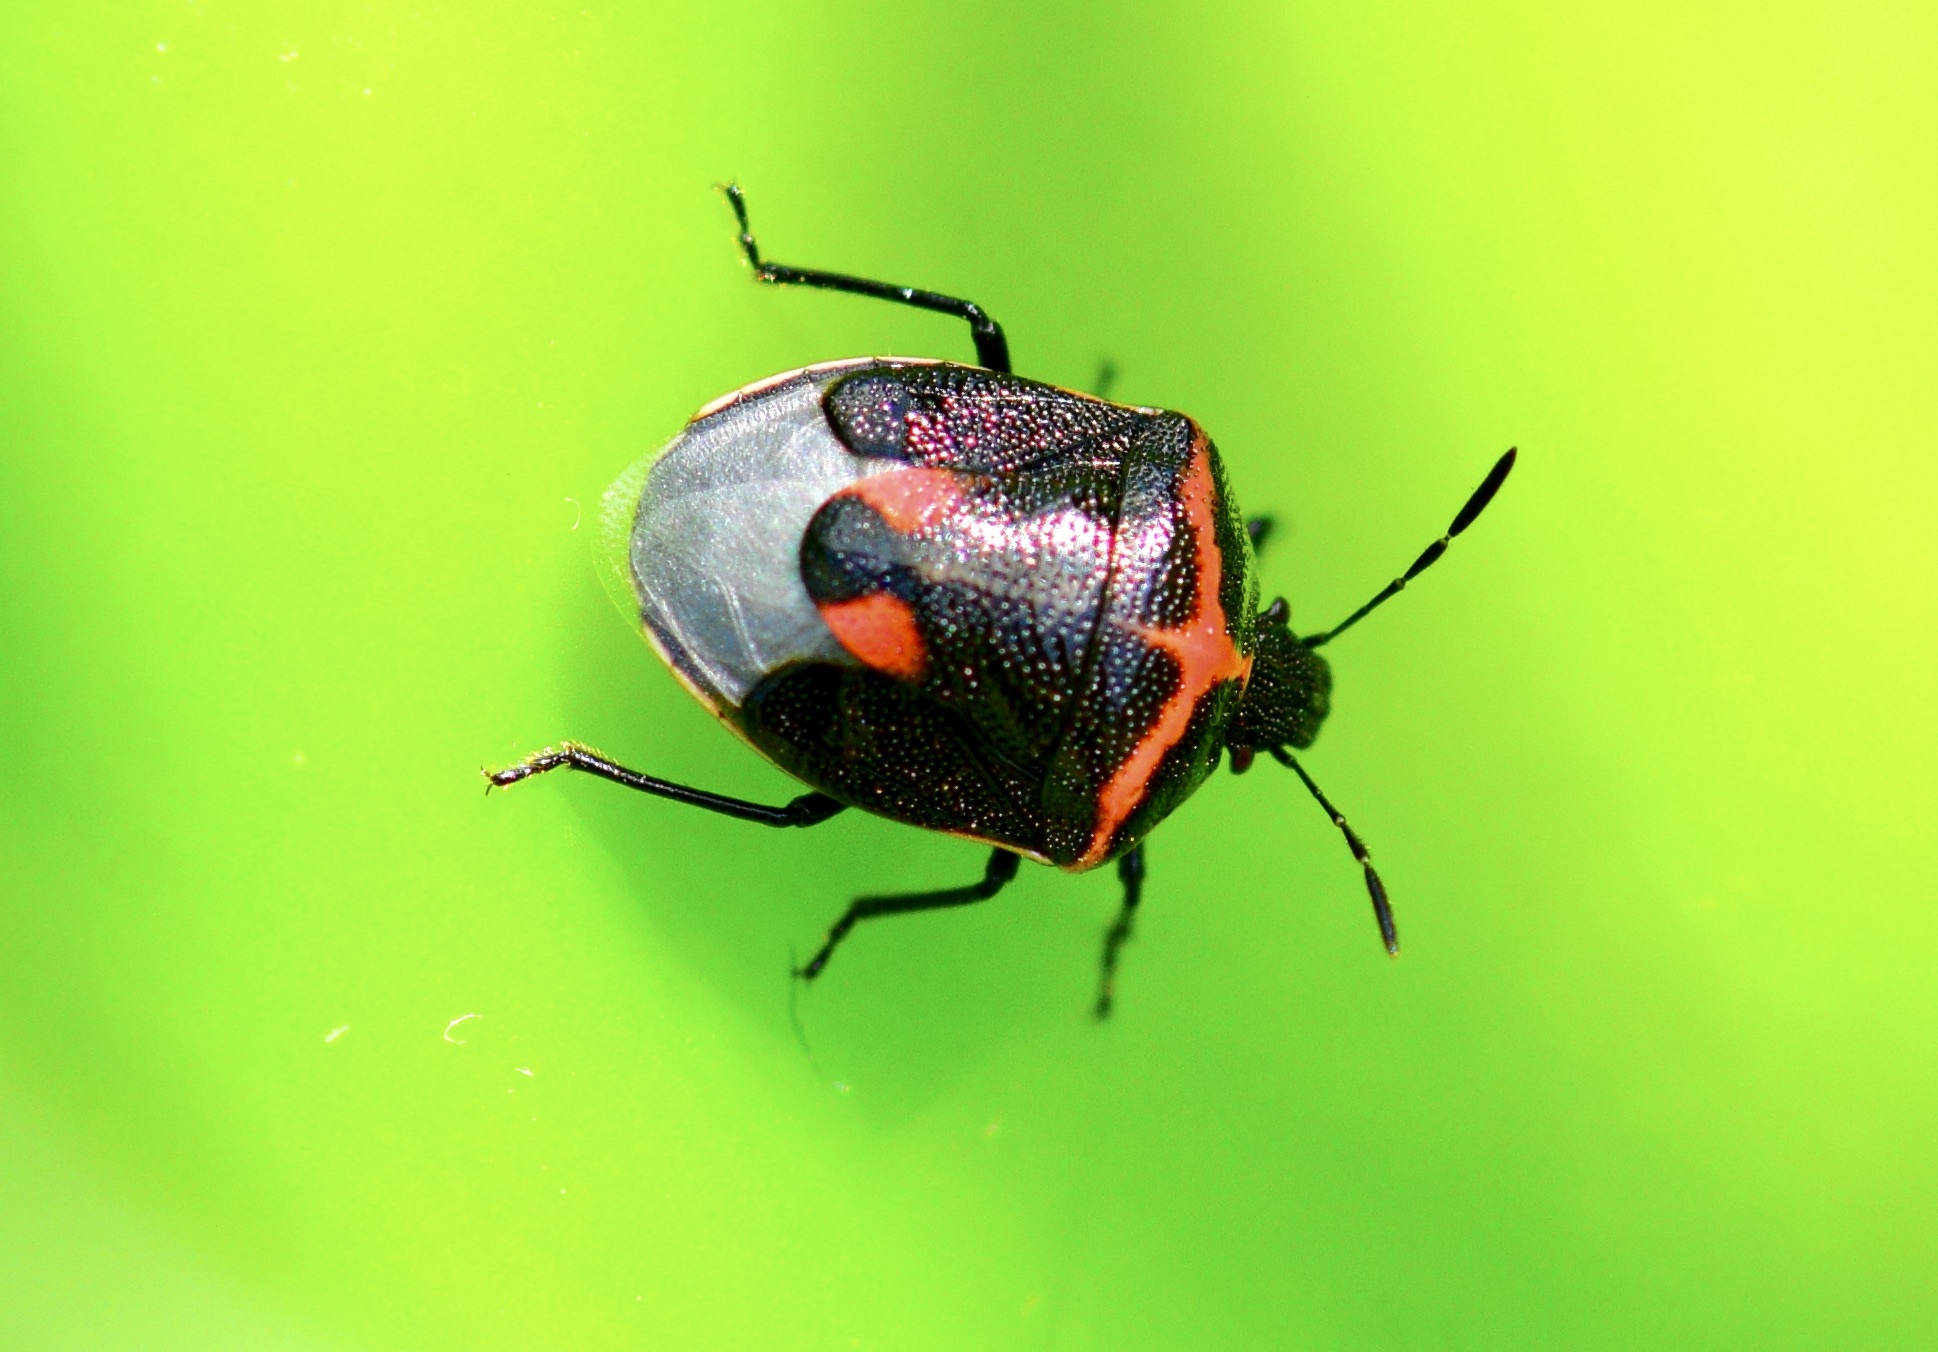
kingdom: Animalia
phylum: Arthropoda
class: Insecta
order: Hemiptera
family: Pentatomidae
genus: Cosmopepla
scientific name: Cosmopepla lintneriana
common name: Twice-stabbed stink bug
